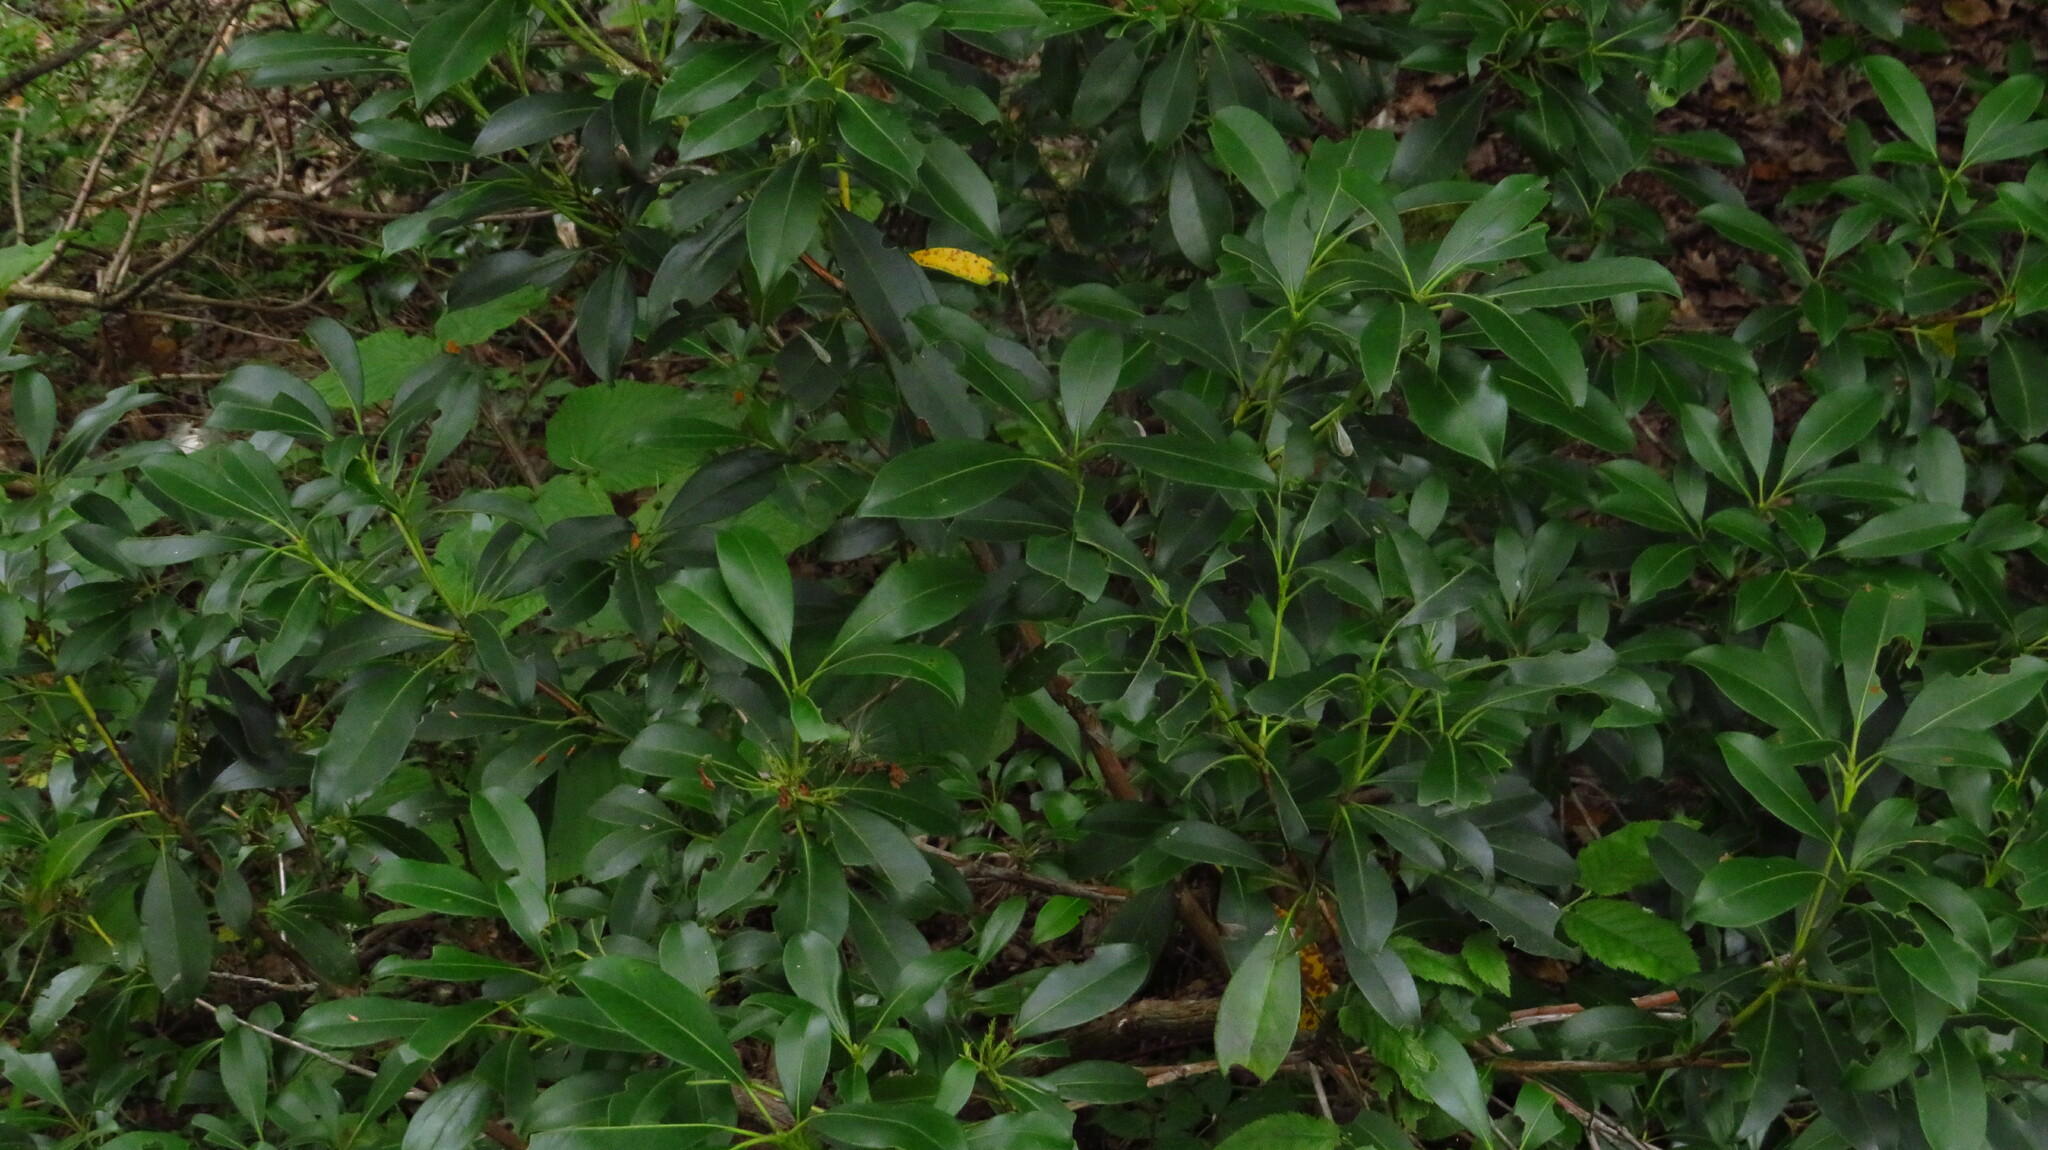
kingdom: Plantae
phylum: Tracheophyta
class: Magnoliopsida
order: Ericales
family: Ericaceae
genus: Kalmia
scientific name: Kalmia latifolia
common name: Mountain-laurel
